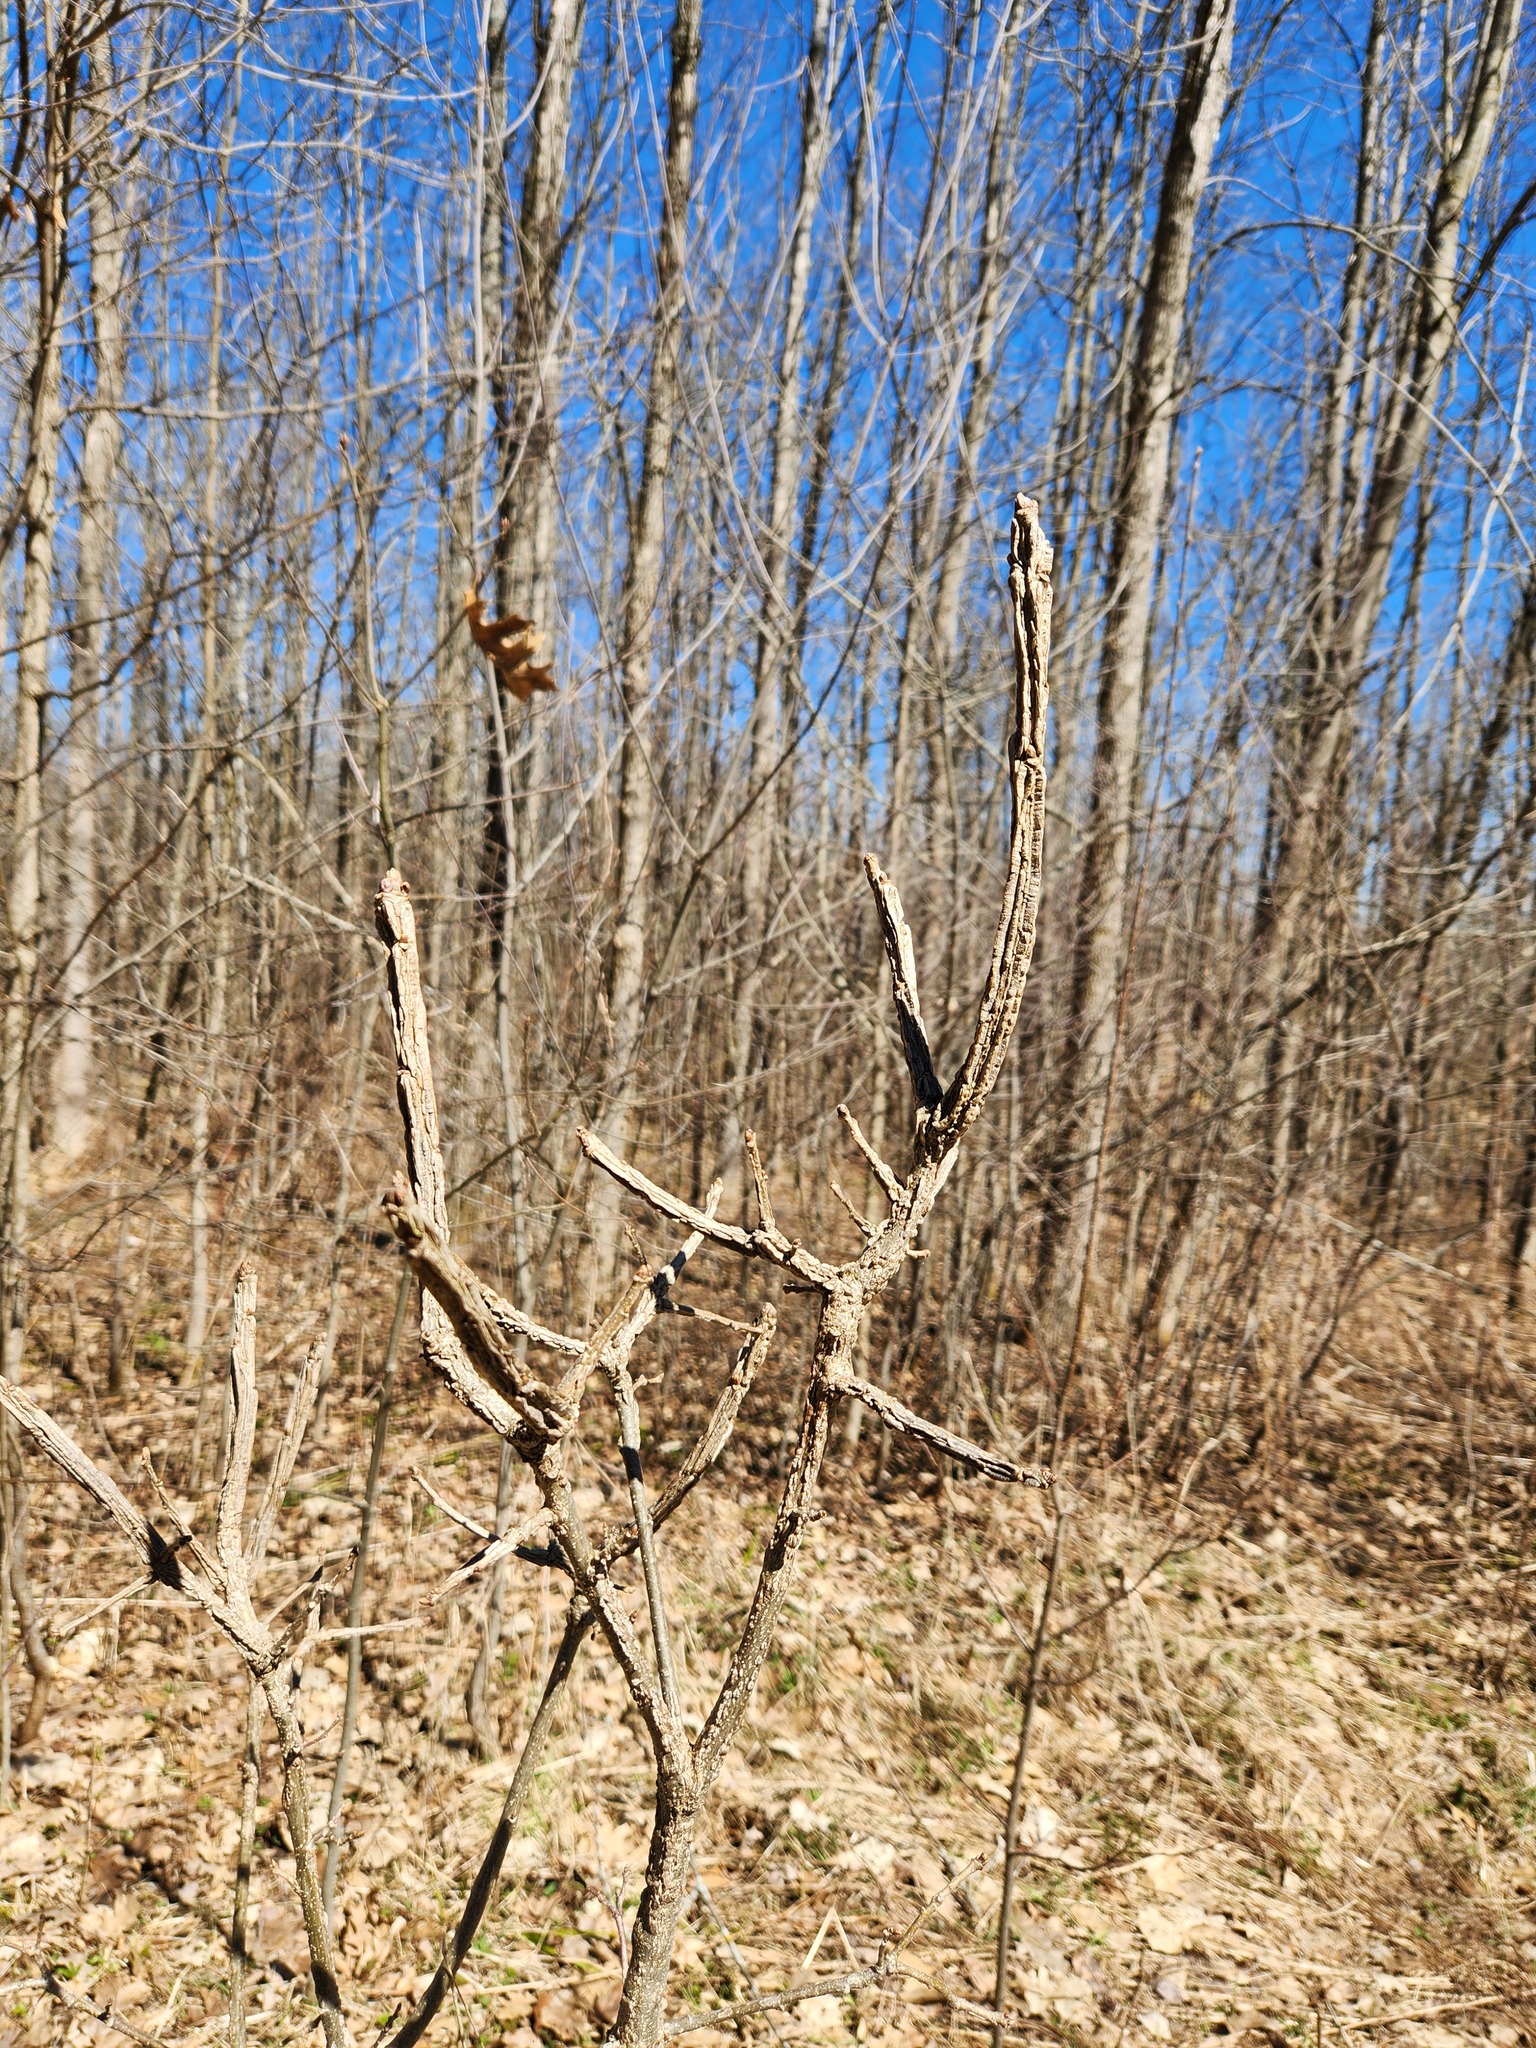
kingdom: Plantae
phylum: Tracheophyta
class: Magnoliopsida
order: Fagales
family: Fagaceae
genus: Quercus
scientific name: Quercus macrocarpa
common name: Bur oak
